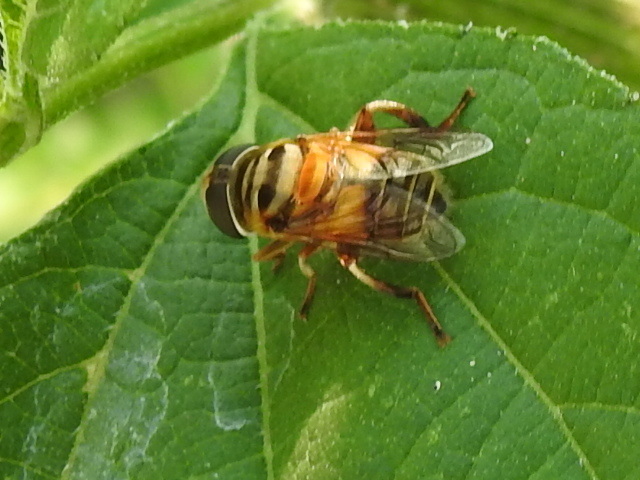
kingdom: Animalia
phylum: Arthropoda
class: Insecta
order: Diptera
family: Syrphidae
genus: Palpada
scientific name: Palpada vinetorum
